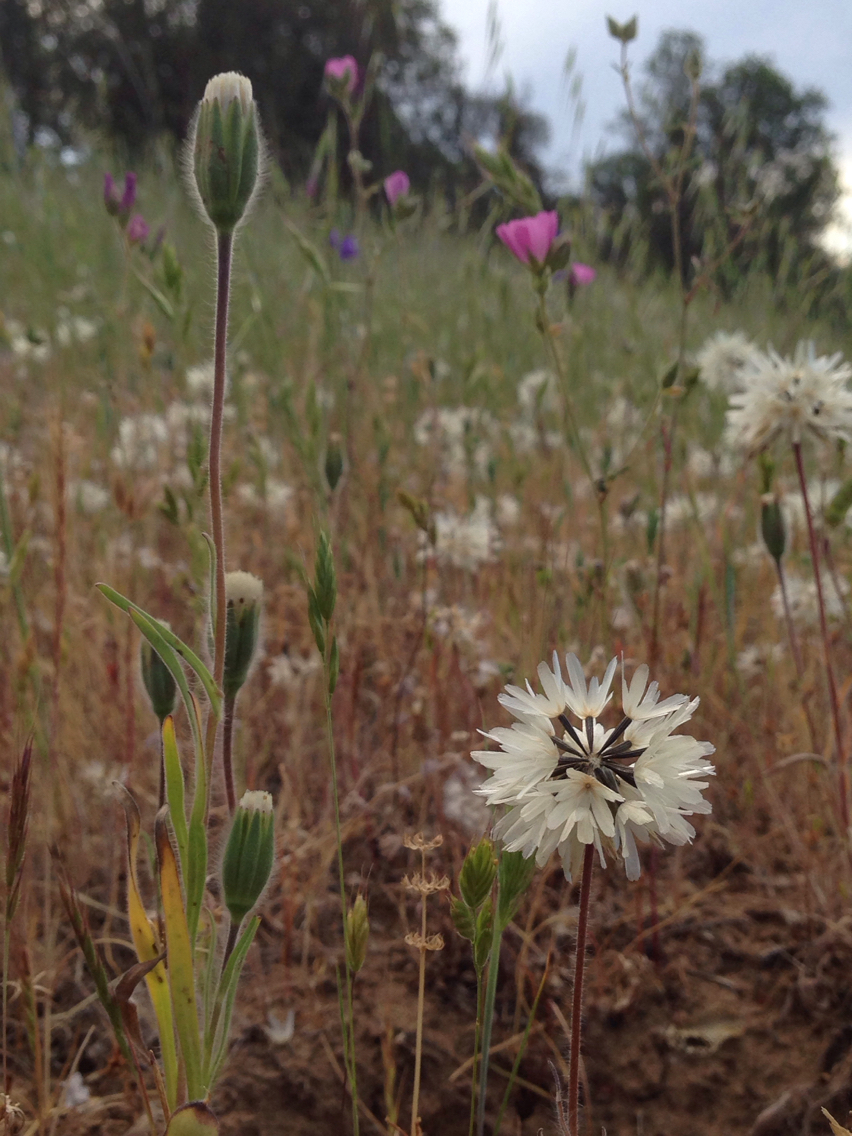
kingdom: Plantae
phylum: Tracheophyta
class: Magnoliopsida
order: Asterales
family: Asteraceae
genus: Achyrachaena
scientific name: Achyrachaena mollis
